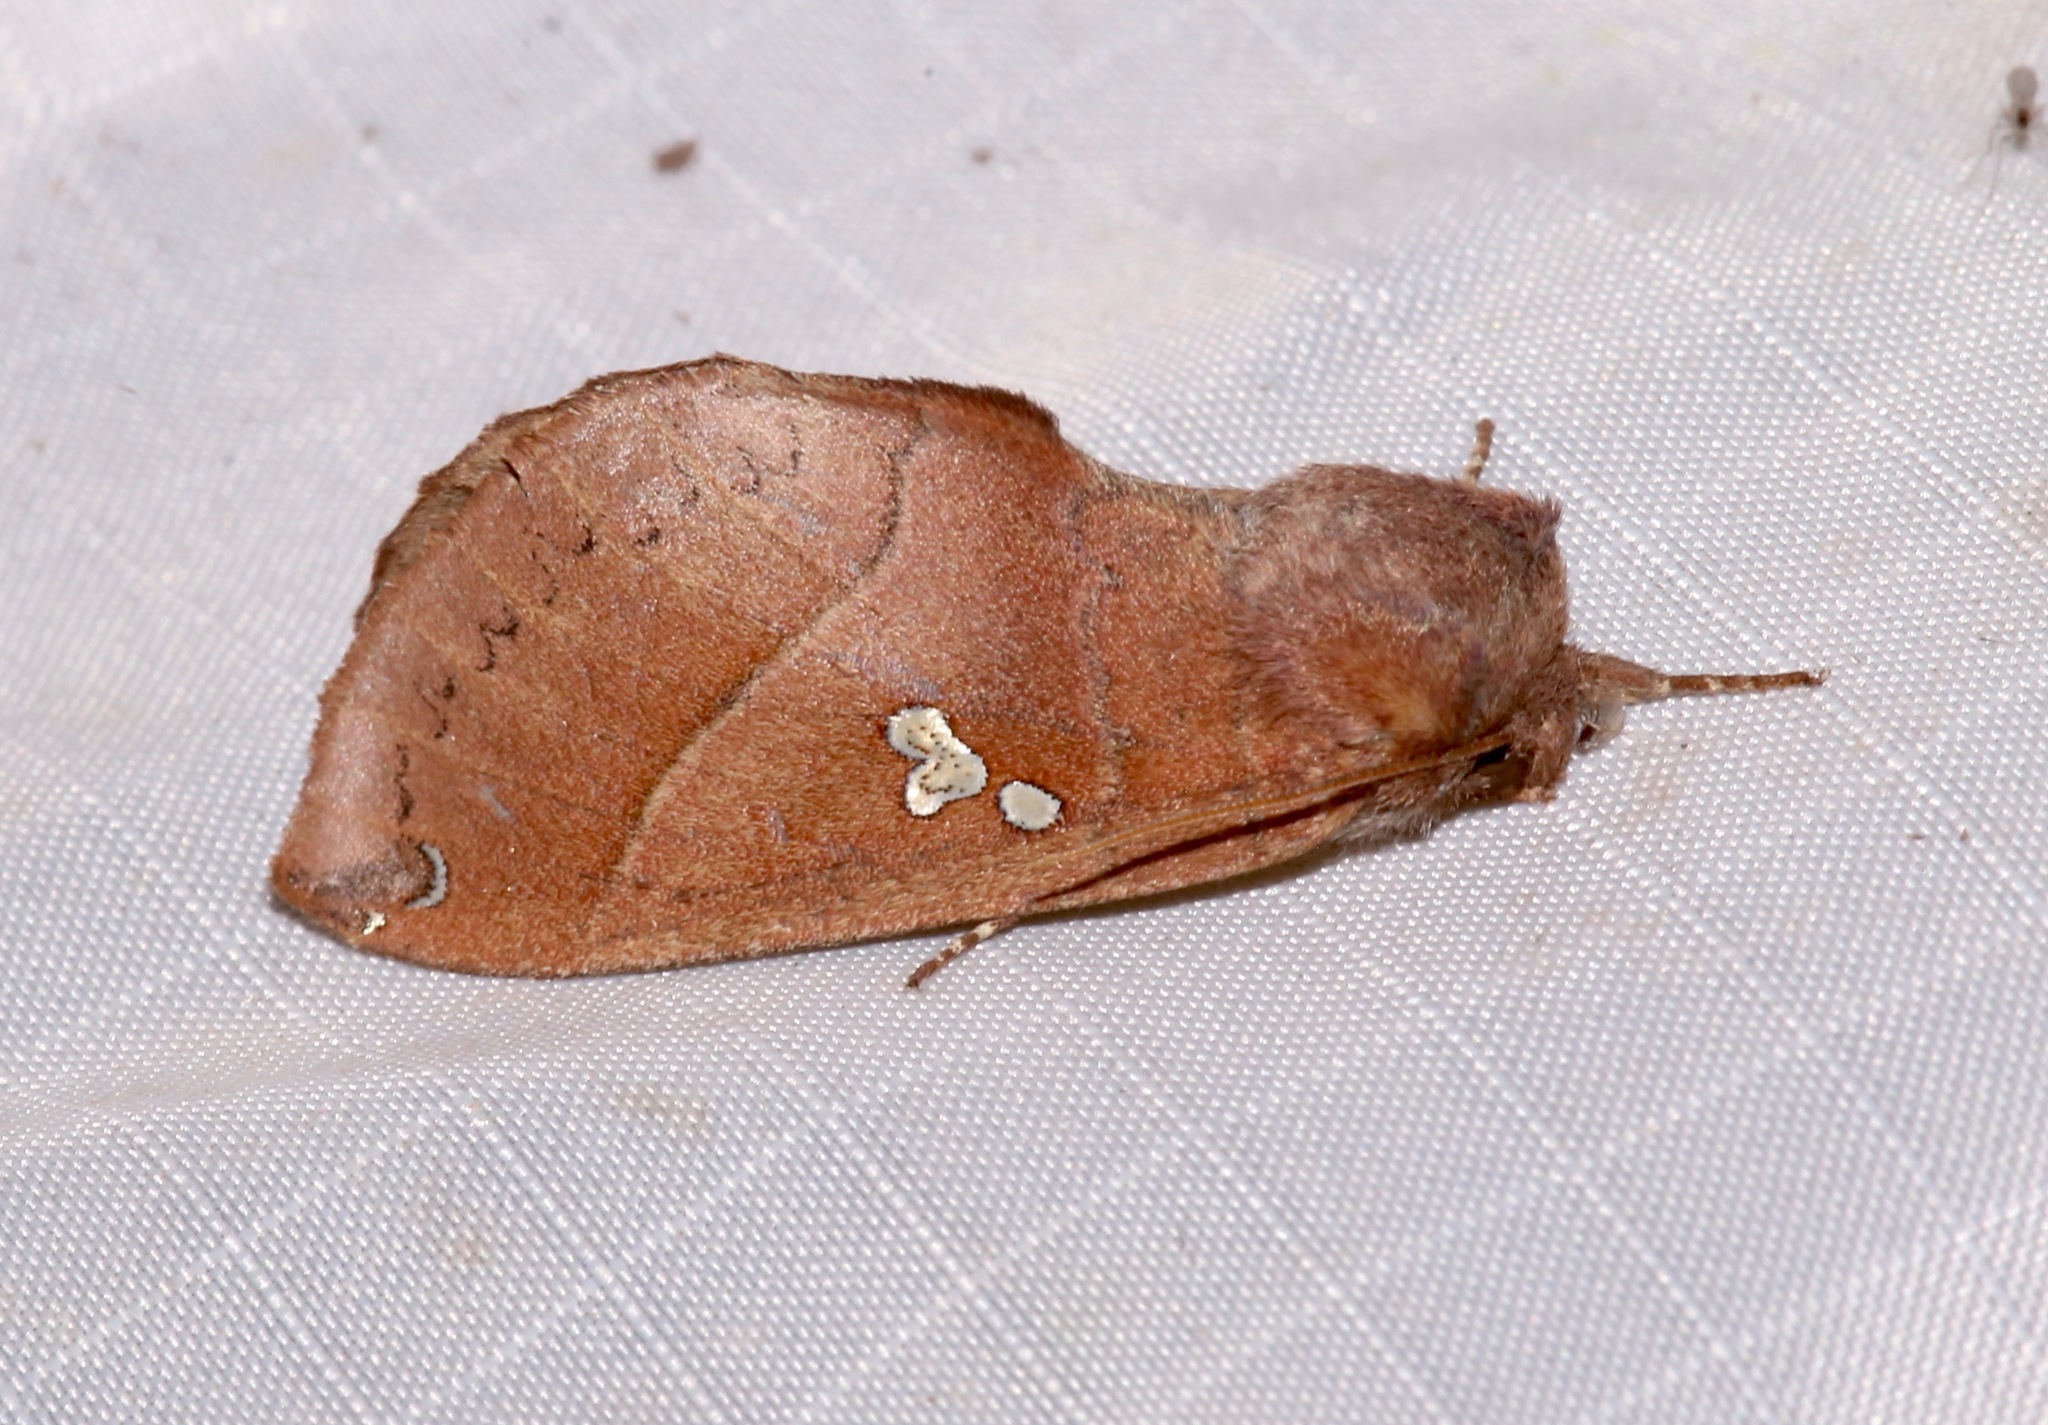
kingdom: Animalia
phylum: Arthropoda
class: Insecta
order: Lepidoptera
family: Notodontidae
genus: Pseudhapigia
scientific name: Pseudhapigia brunnea
